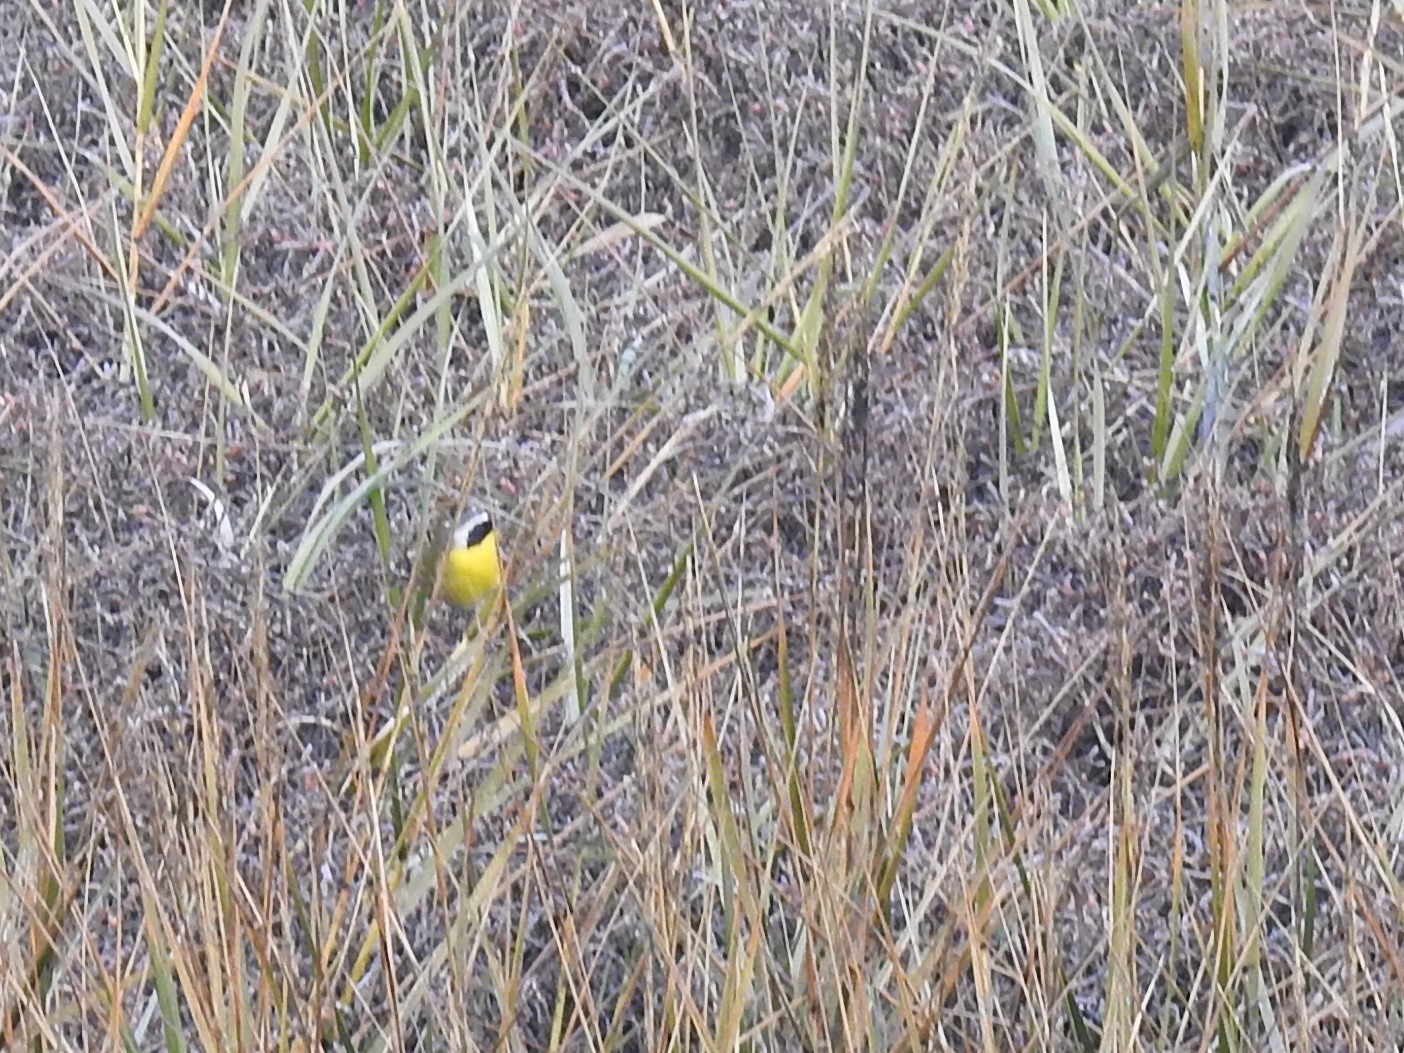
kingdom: Animalia
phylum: Chordata
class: Aves
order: Passeriformes
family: Parulidae
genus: Geothlypis
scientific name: Geothlypis trichas
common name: Common yellowthroat
